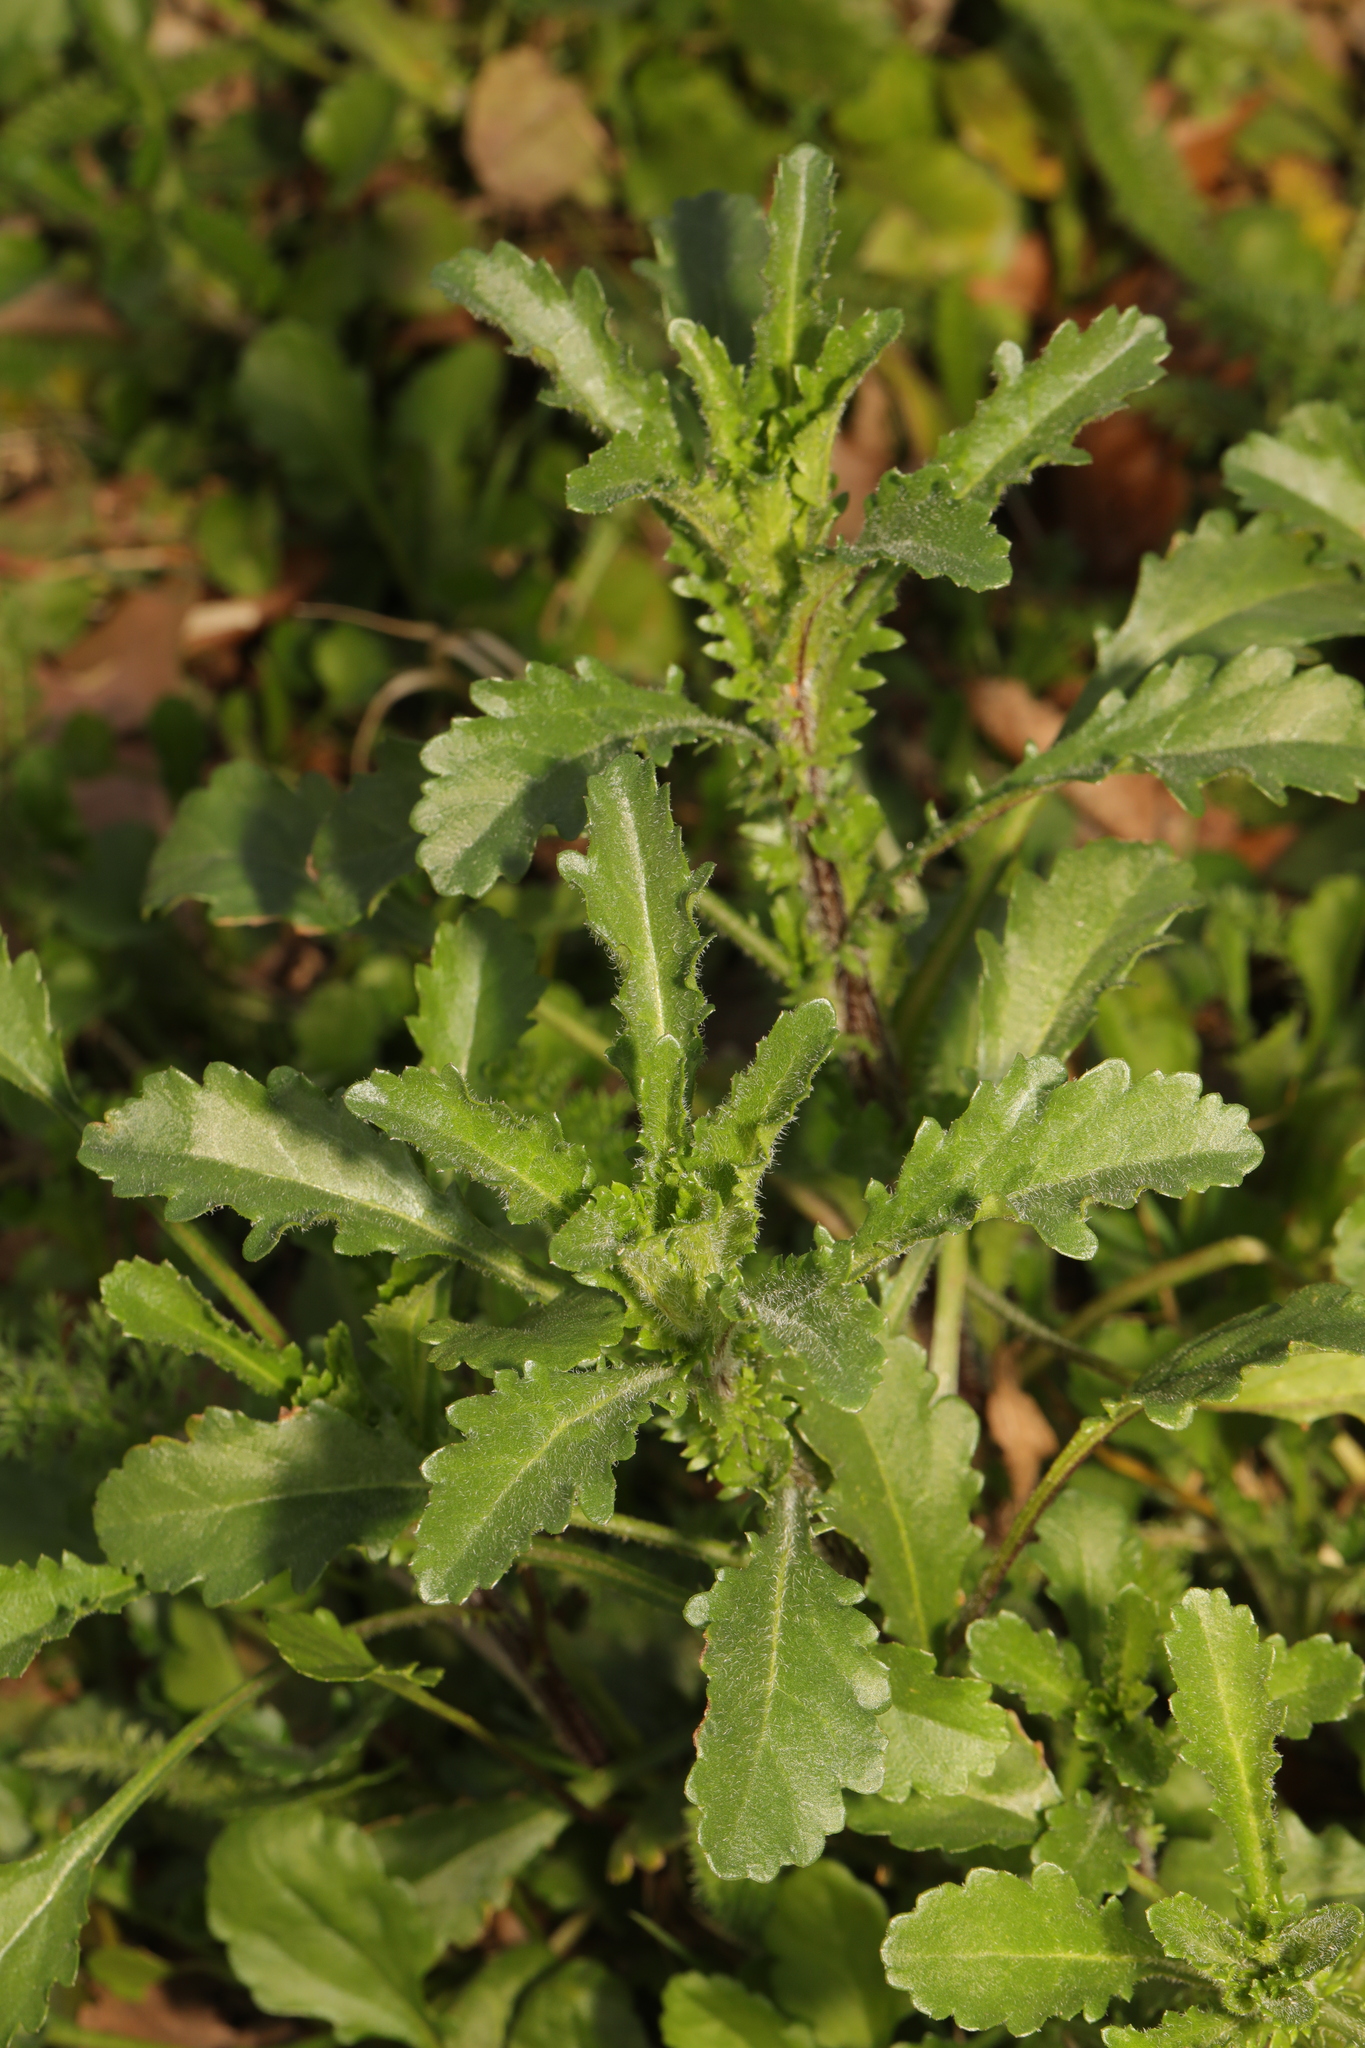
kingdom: Plantae
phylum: Tracheophyta
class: Magnoliopsida
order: Asterales
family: Asteraceae
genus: Leucanthemum
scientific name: Leucanthemum vulgare
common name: Oxeye daisy
